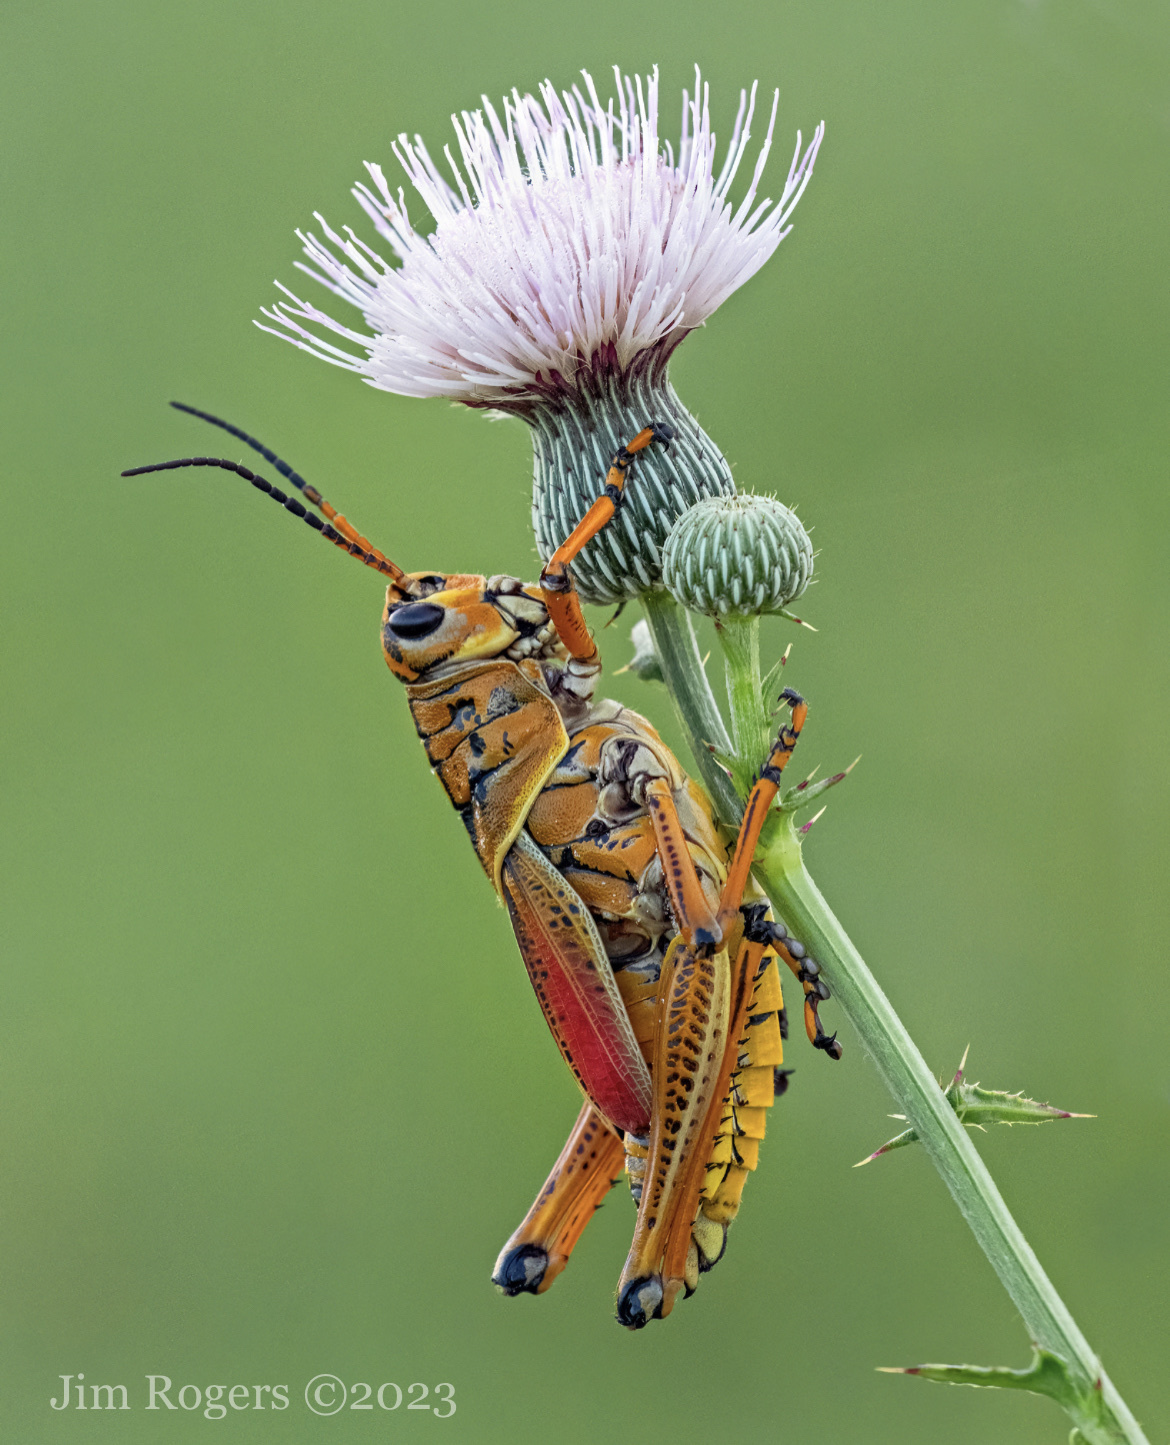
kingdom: Animalia
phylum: Arthropoda
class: Insecta
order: Orthoptera
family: Romaleidae
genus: Romalea
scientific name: Romalea microptera
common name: Eastern lubber grasshopper
